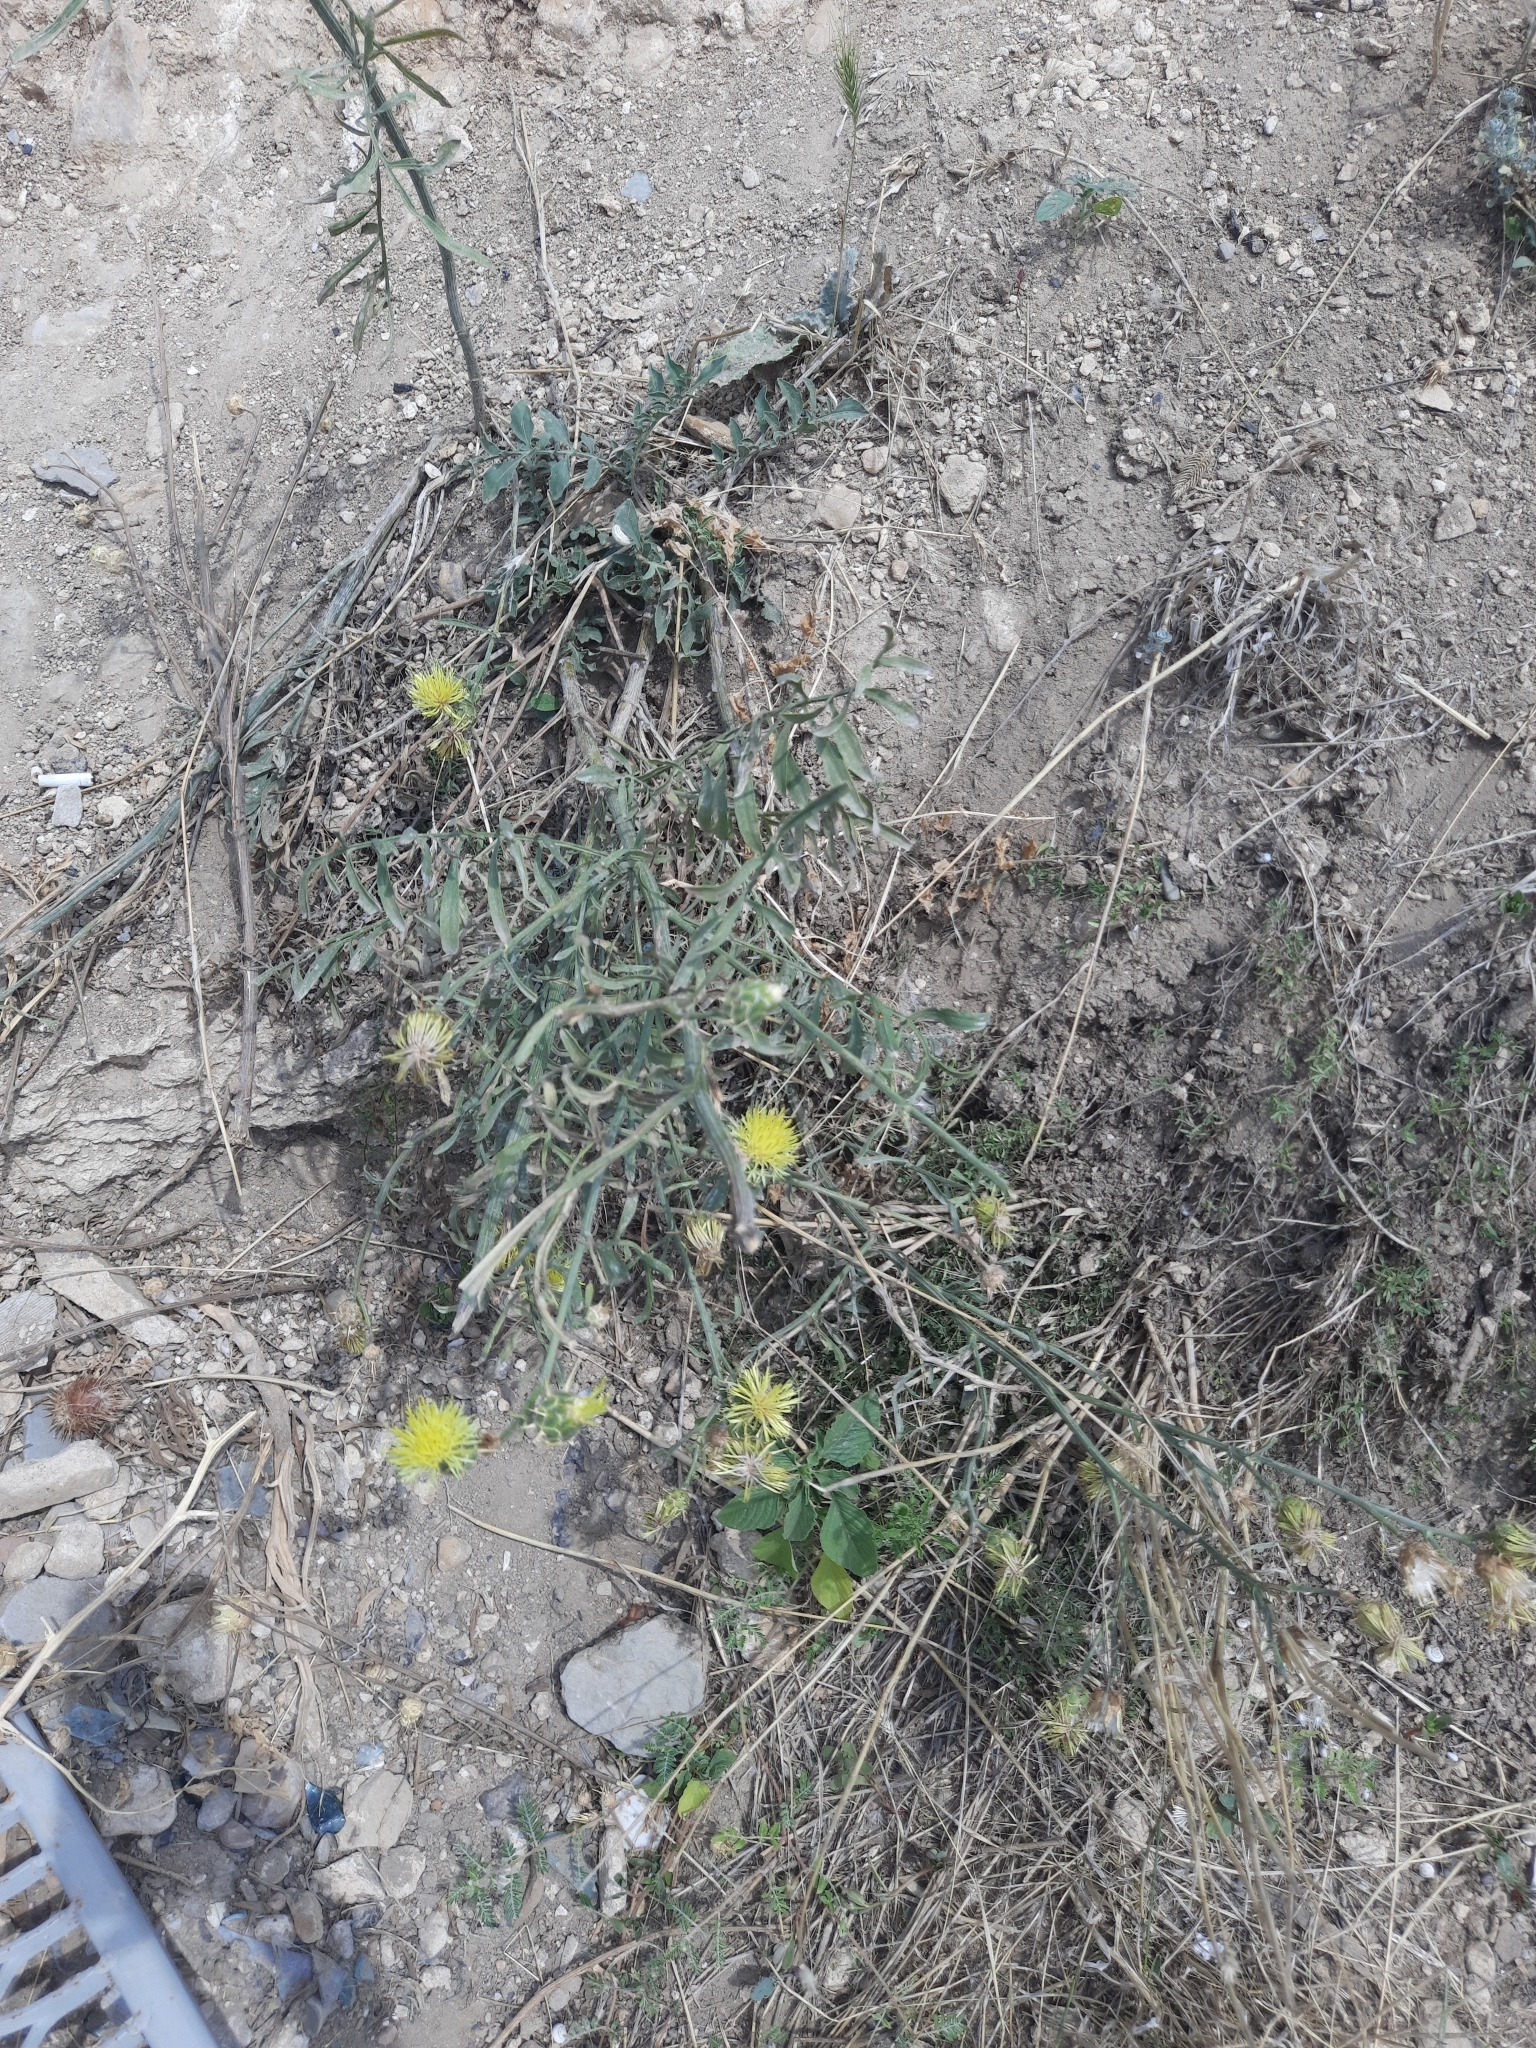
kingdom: Plantae
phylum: Tracheophyta
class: Magnoliopsida
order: Asterales
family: Asteraceae
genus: Centaurea
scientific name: Centaurea salonitana
